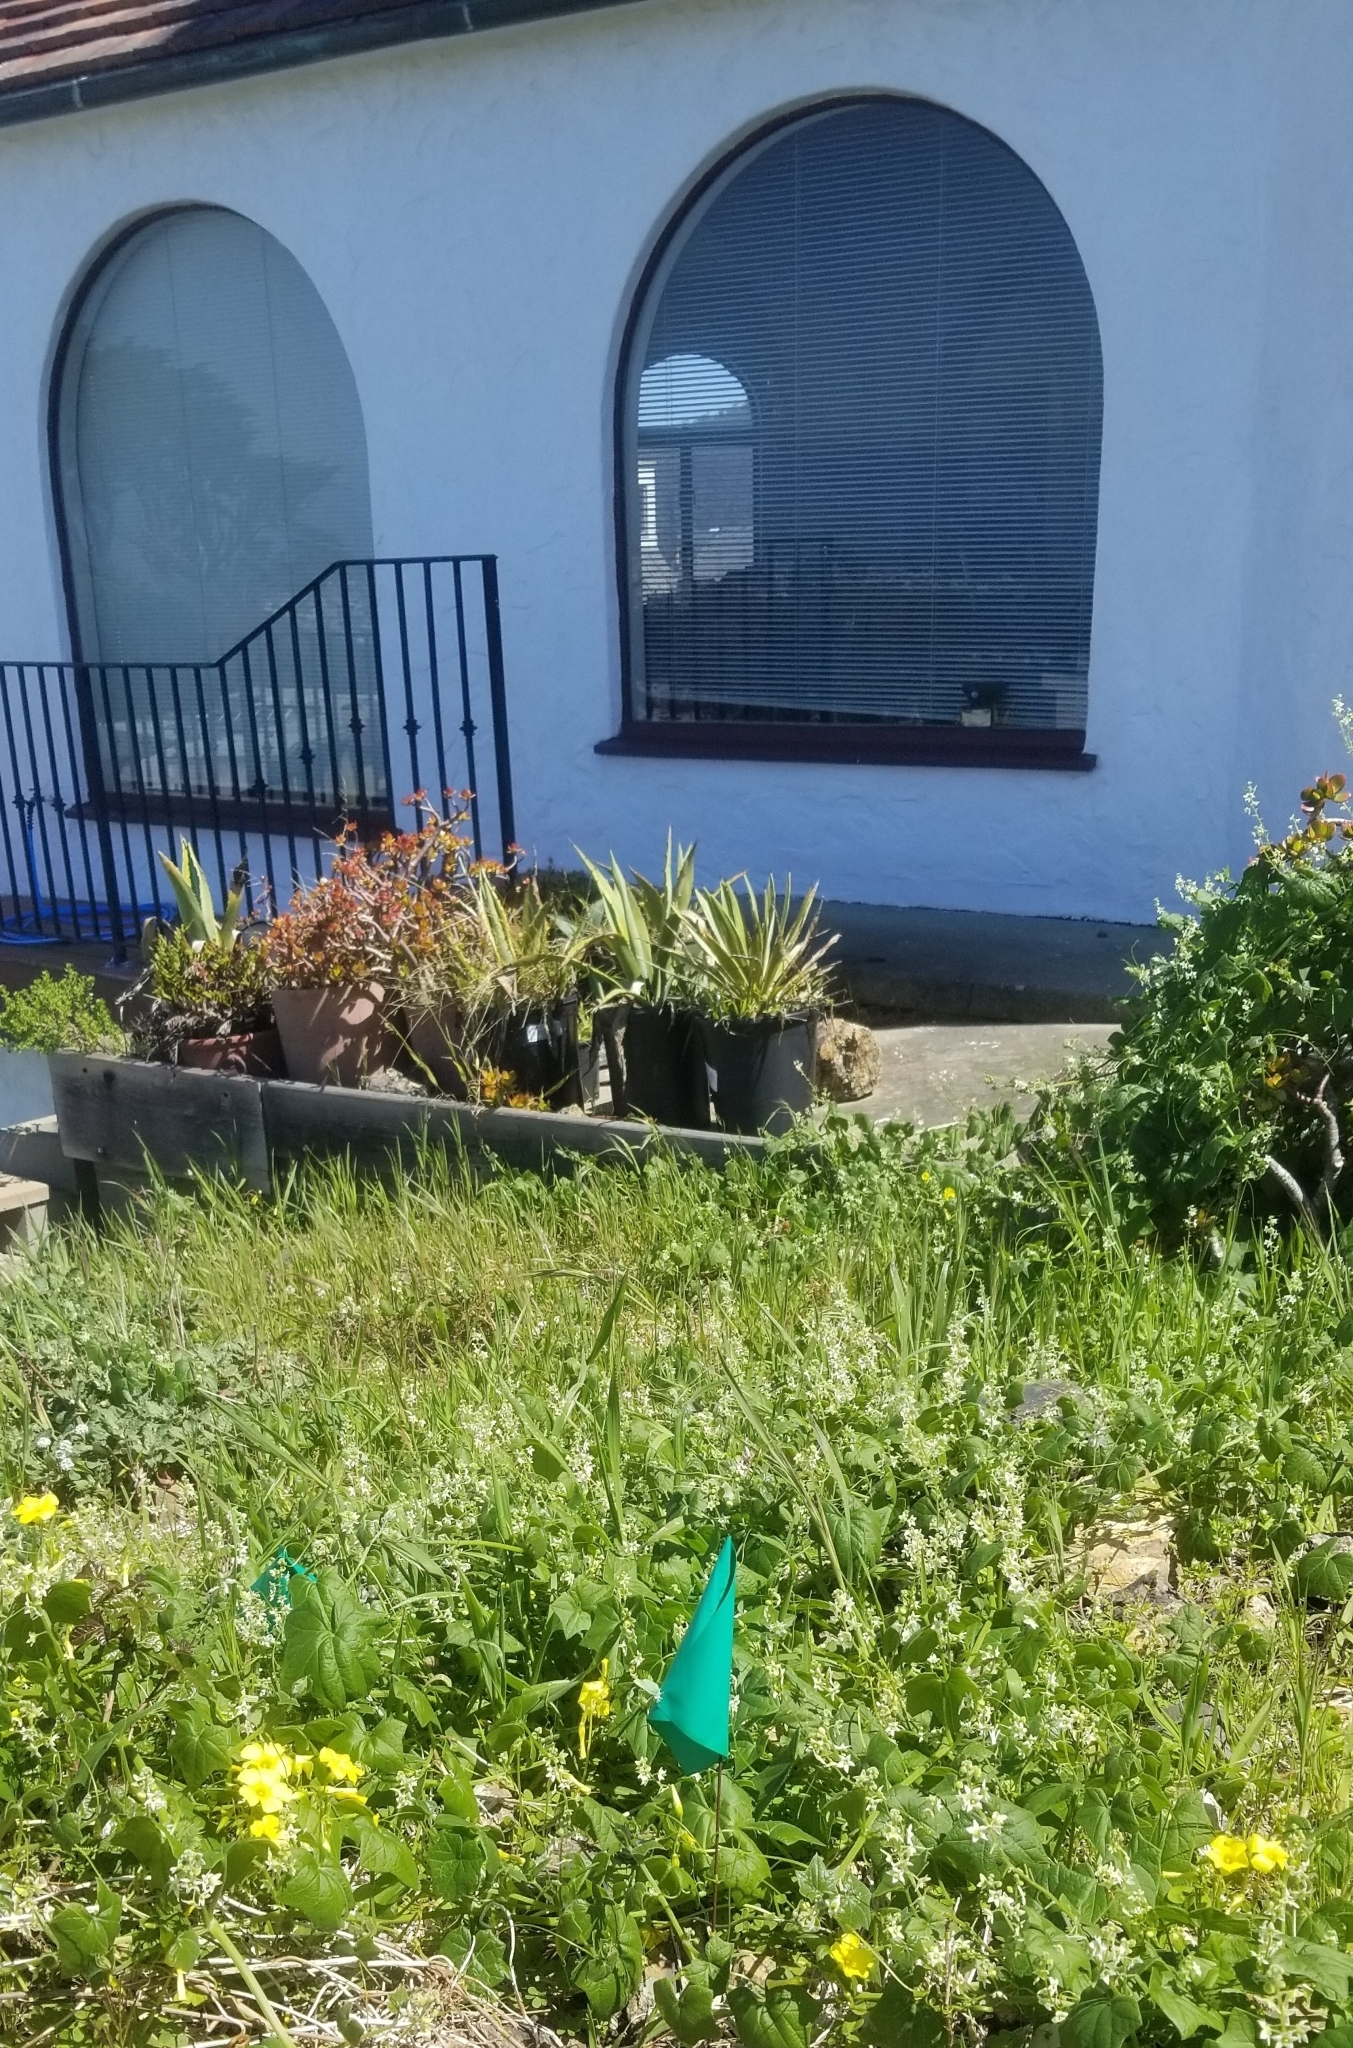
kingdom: Animalia
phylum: Arthropoda
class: Insecta
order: Lepidoptera
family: Lycaenidae
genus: Callophrys
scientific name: Callophrys viridis
